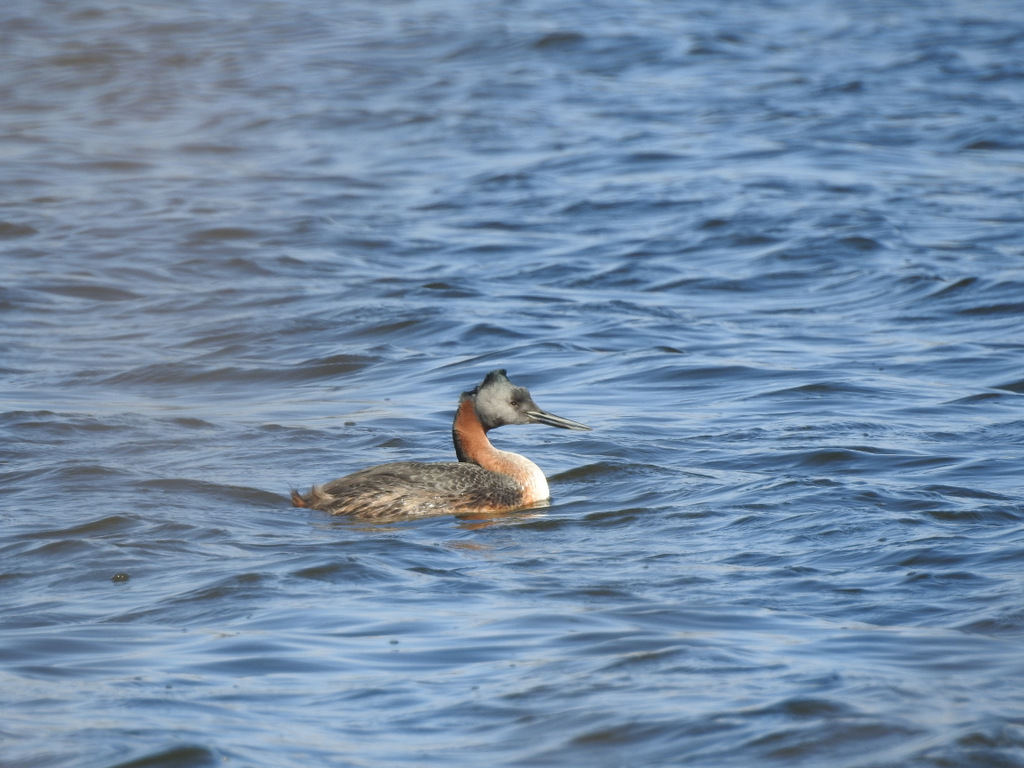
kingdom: Animalia
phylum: Chordata
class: Aves
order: Podicipediformes
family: Podicipedidae
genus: Podiceps
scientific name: Podiceps major
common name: Great grebe
